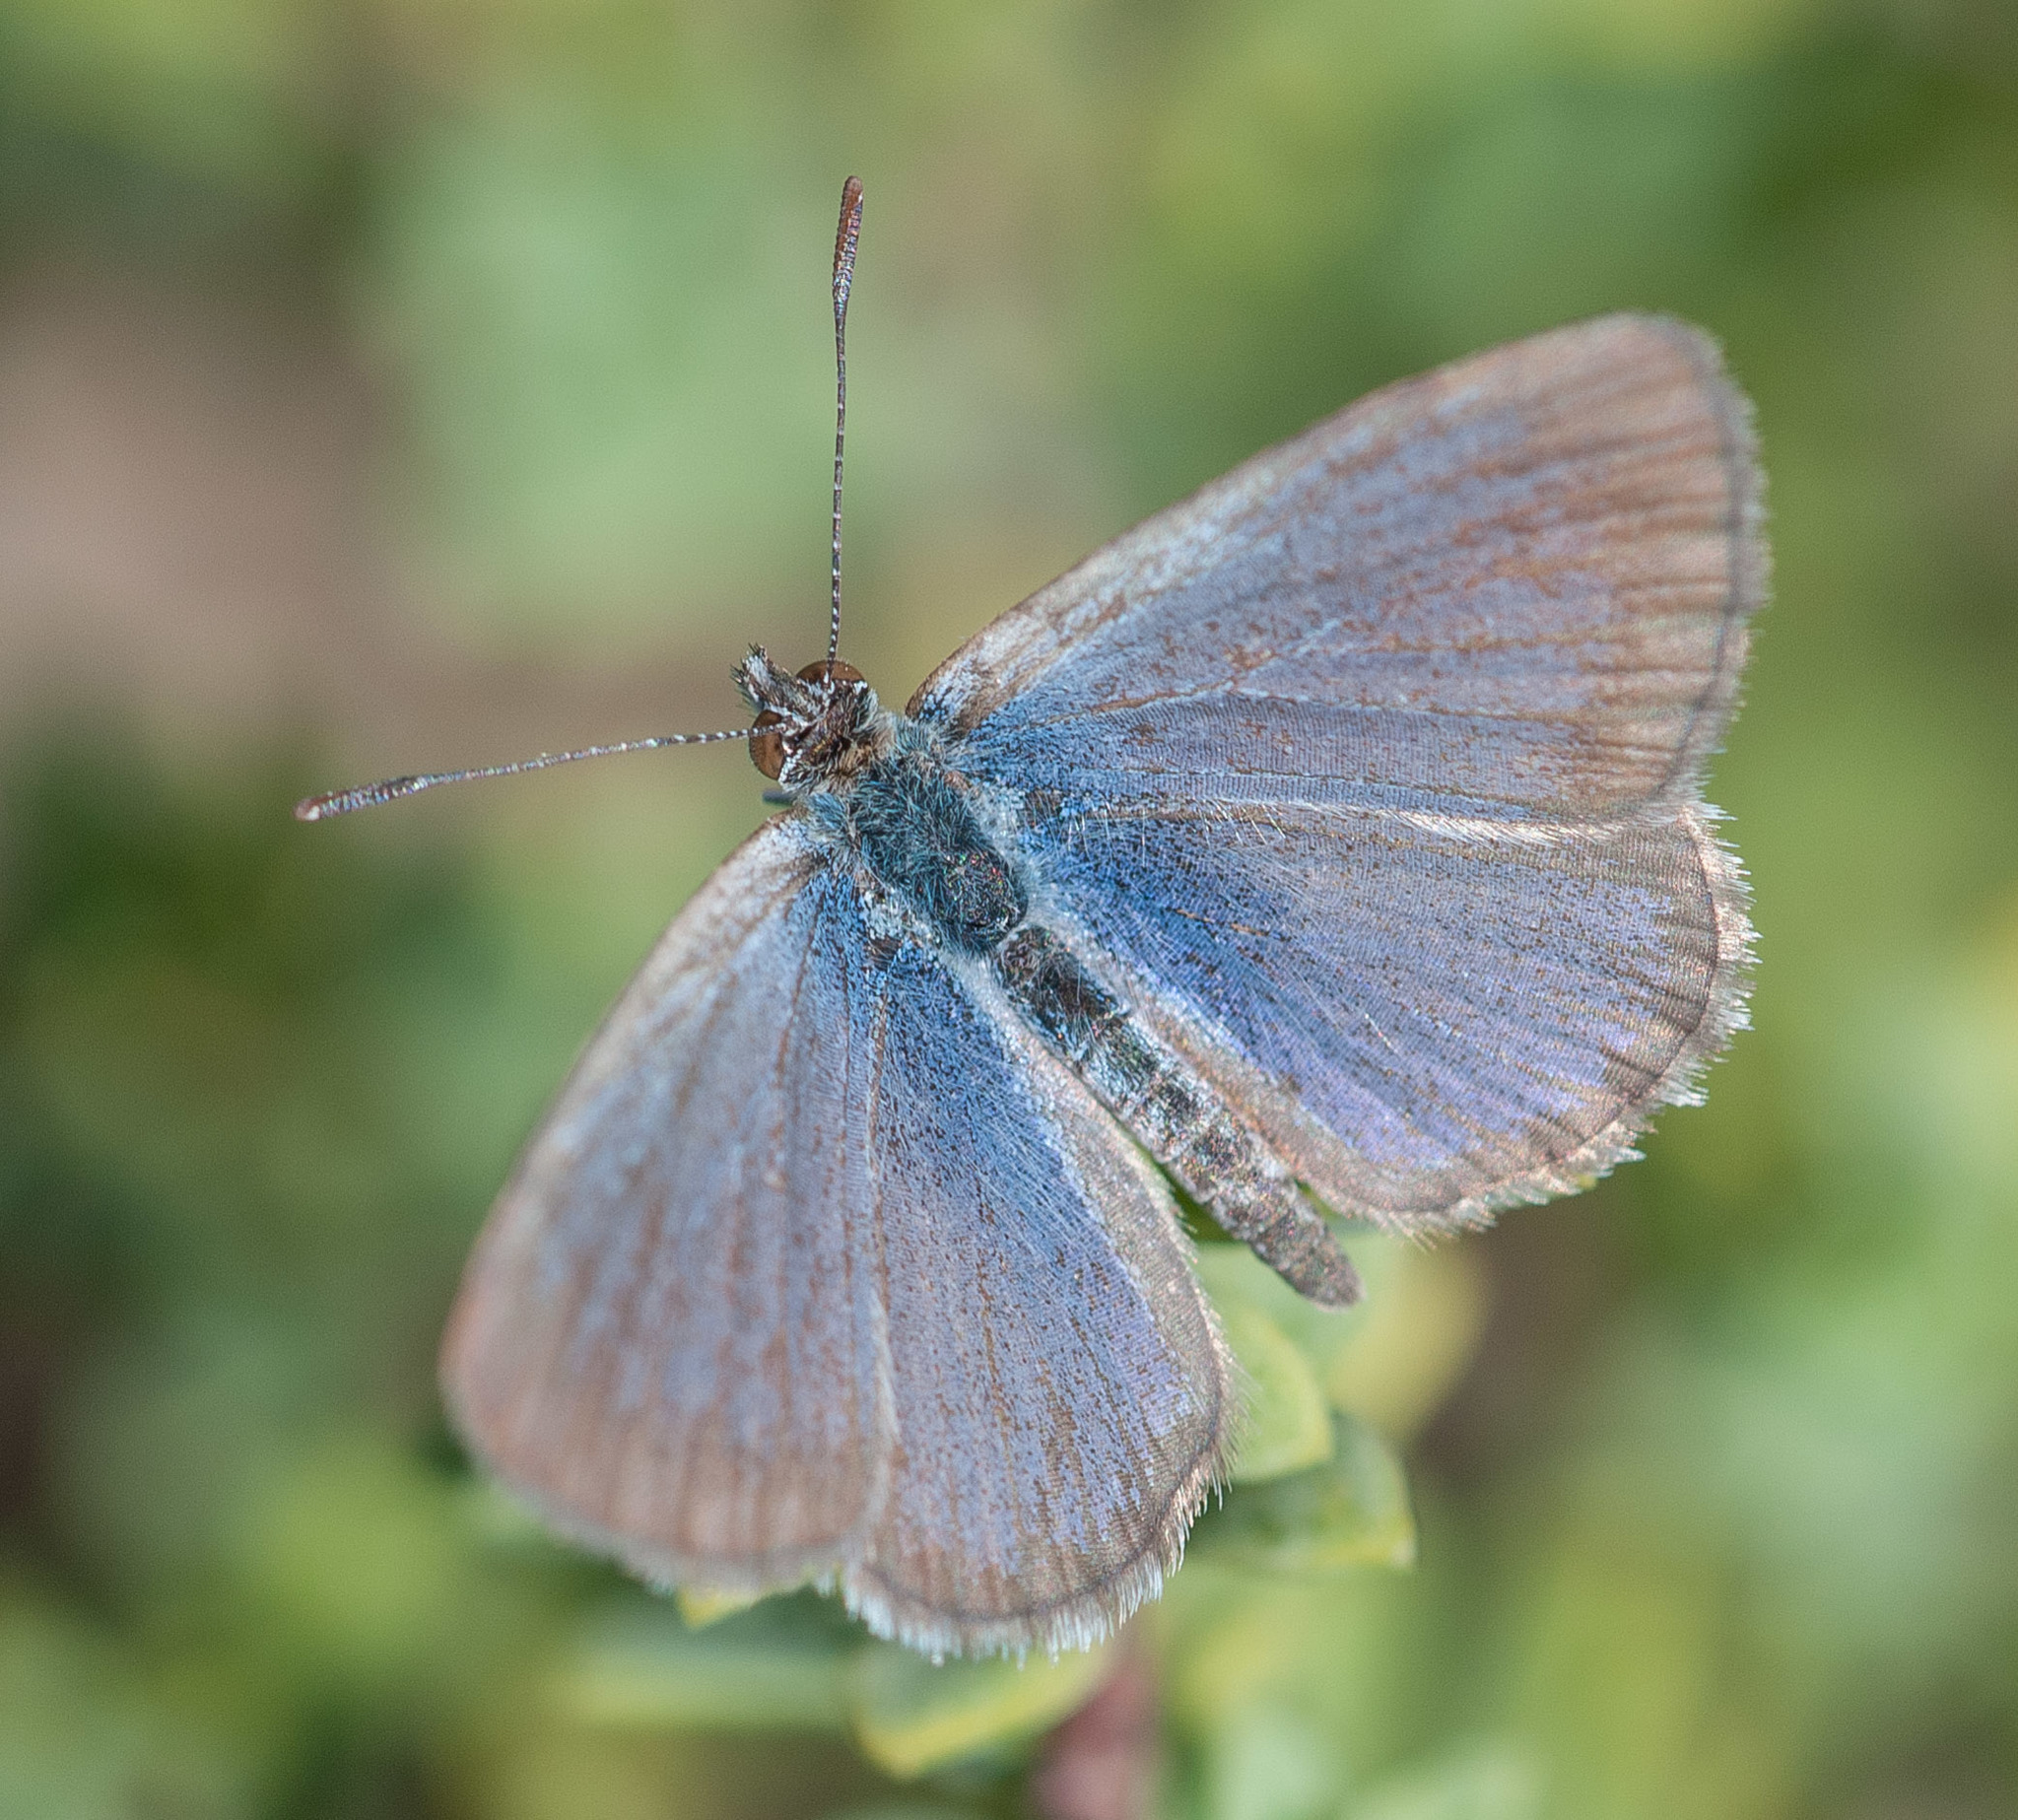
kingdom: Animalia
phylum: Arthropoda
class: Insecta
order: Lepidoptera
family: Lycaenidae
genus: Zizina
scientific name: Zizina labradus
